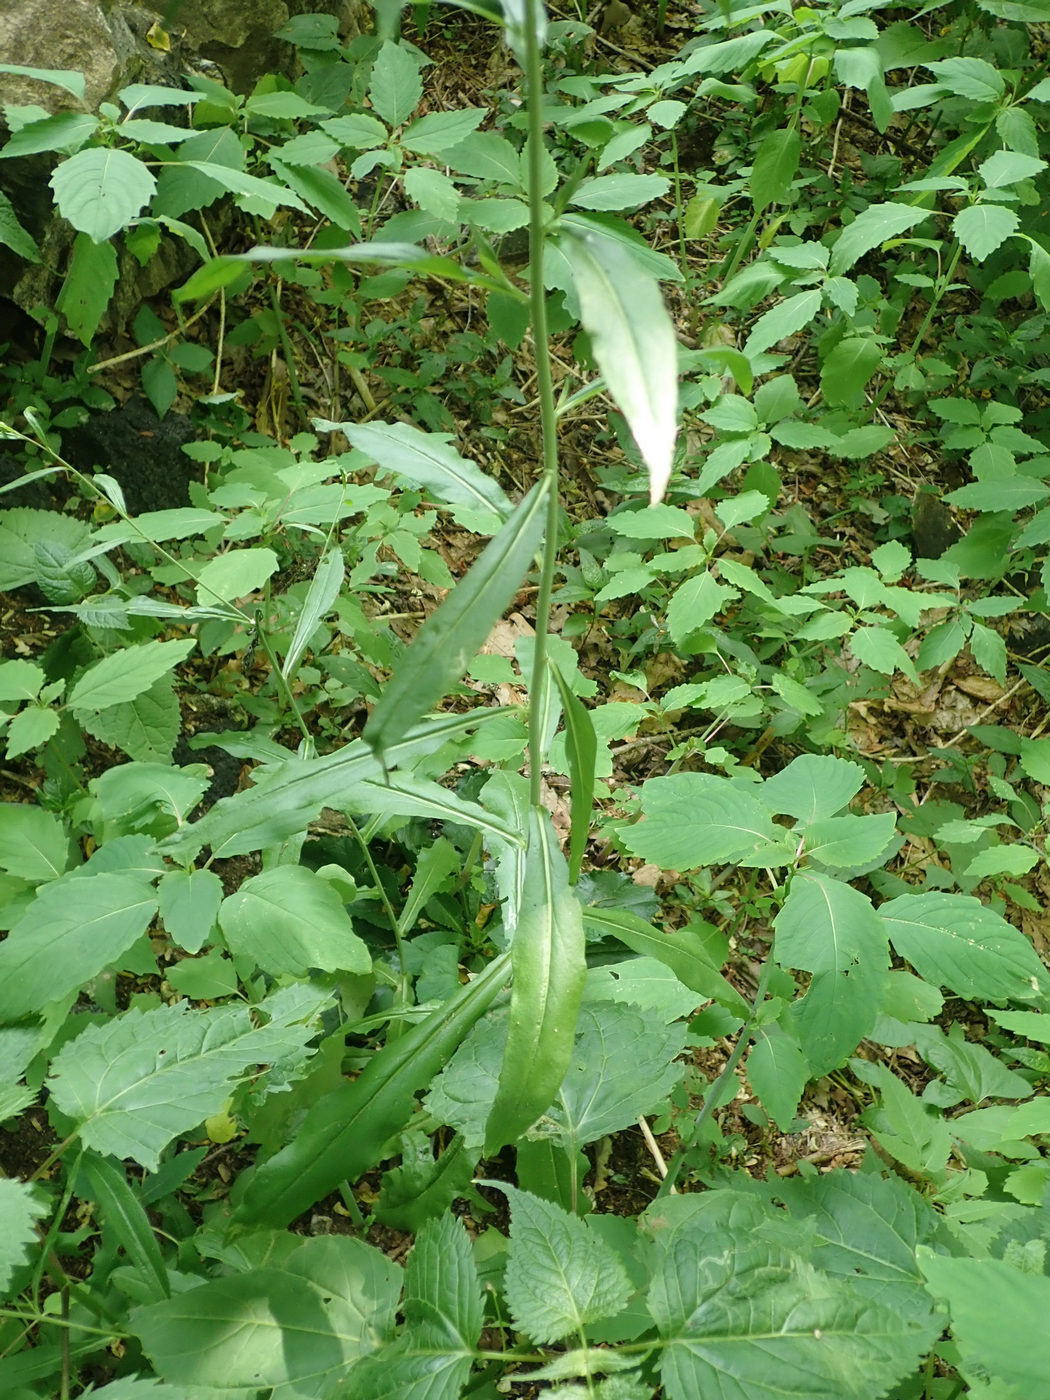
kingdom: Plantae
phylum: Tracheophyta
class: Magnoliopsida
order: Brassicales
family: Brassicaceae
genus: Borodinia
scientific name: Borodinia canadensis
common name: Sicklepod
